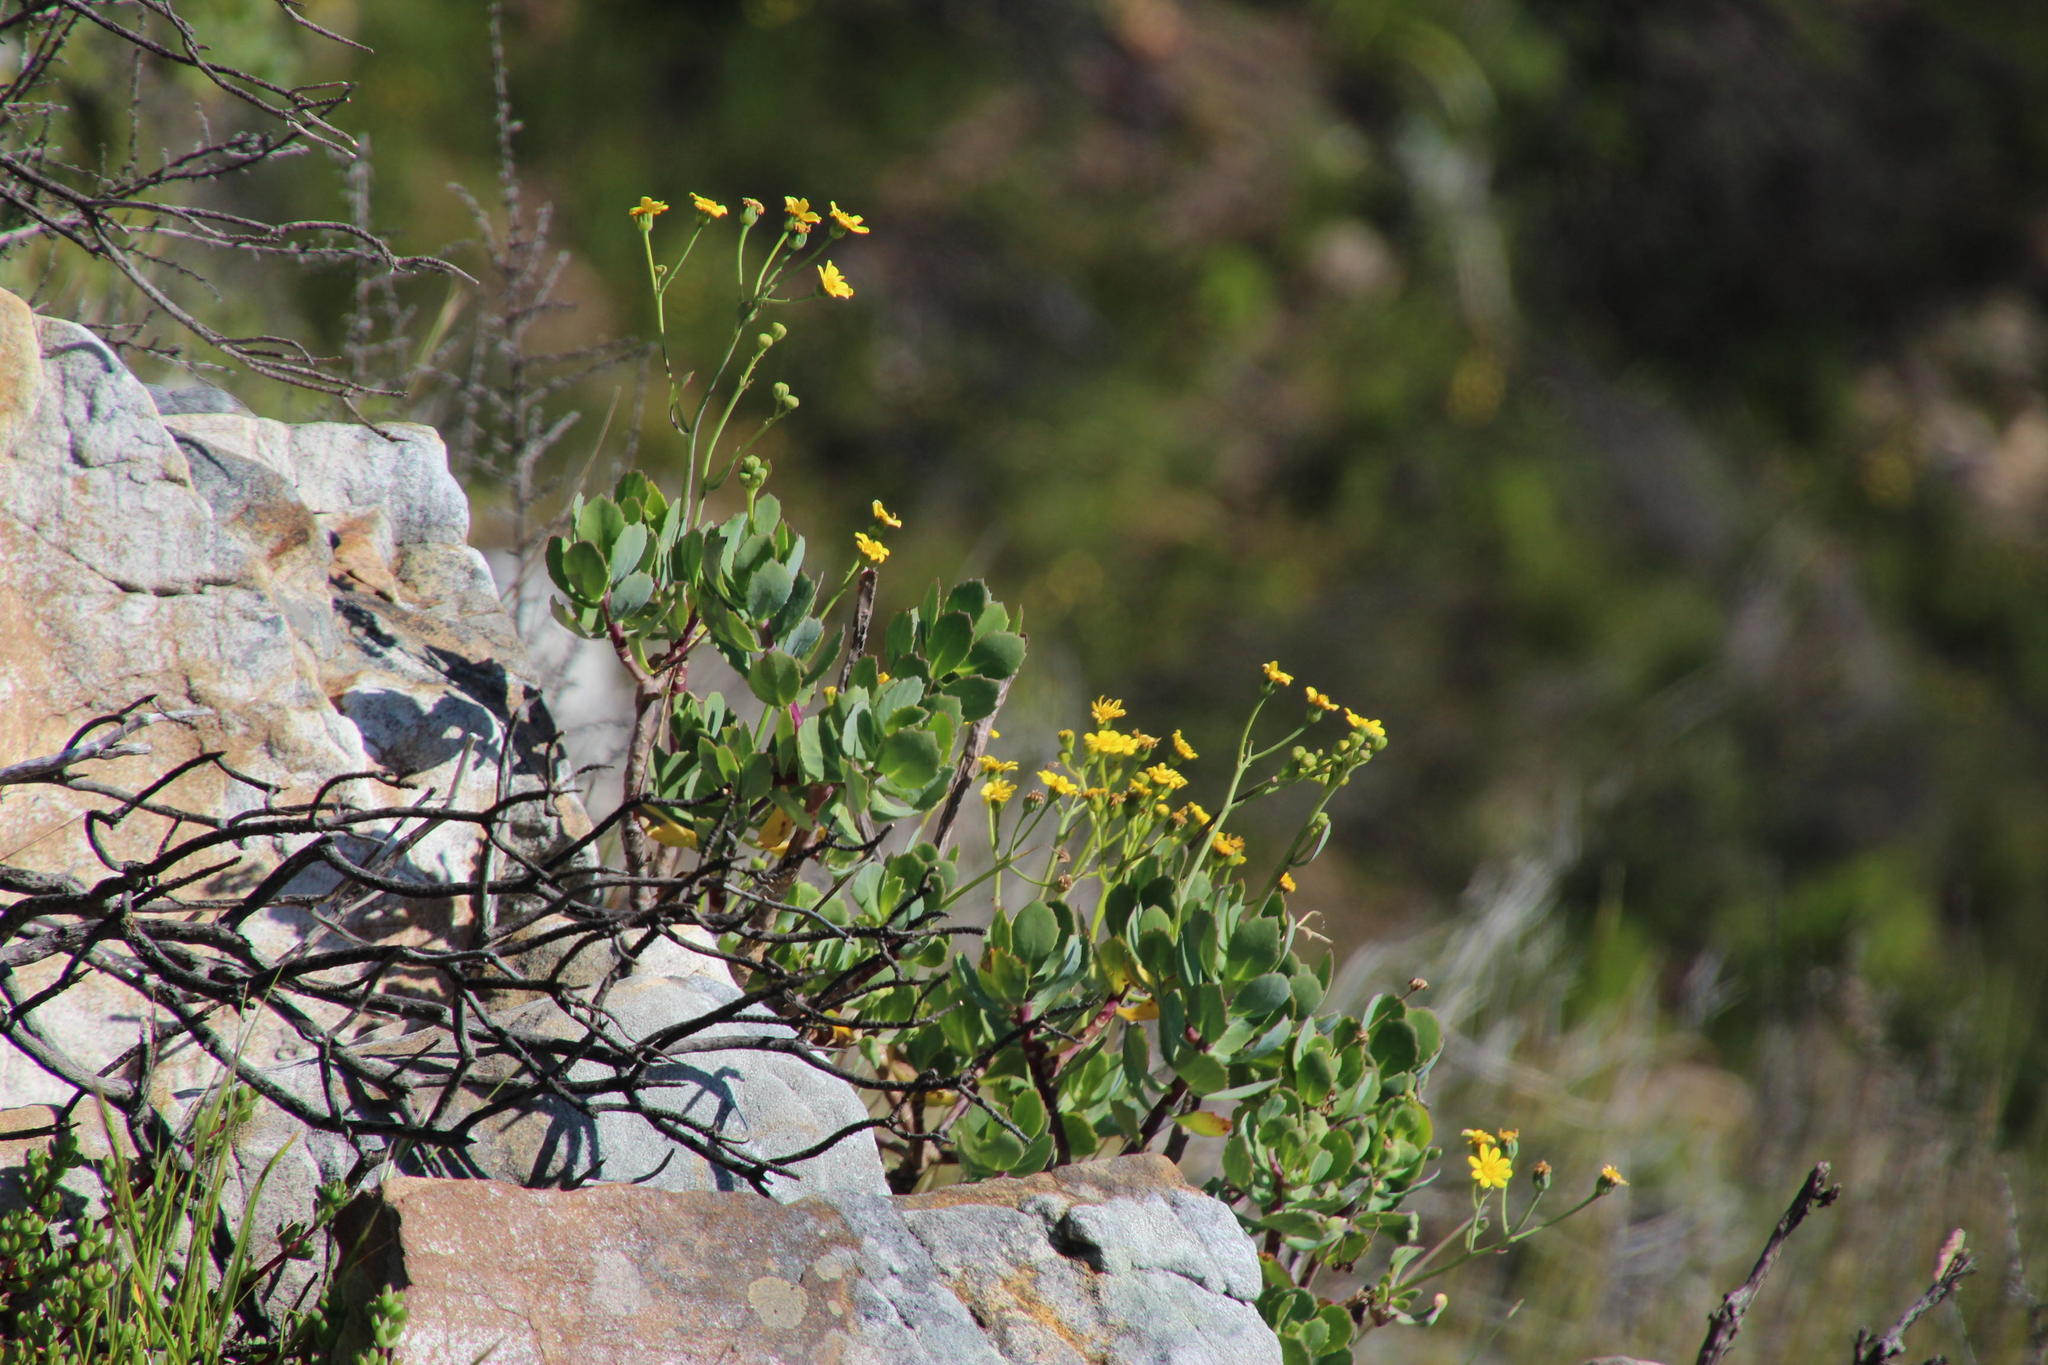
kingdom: Plantae
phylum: Tracheophyta
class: Magnoliopsida
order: Asterales
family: Asteraceae
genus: Othonna
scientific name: Othonna dentata
